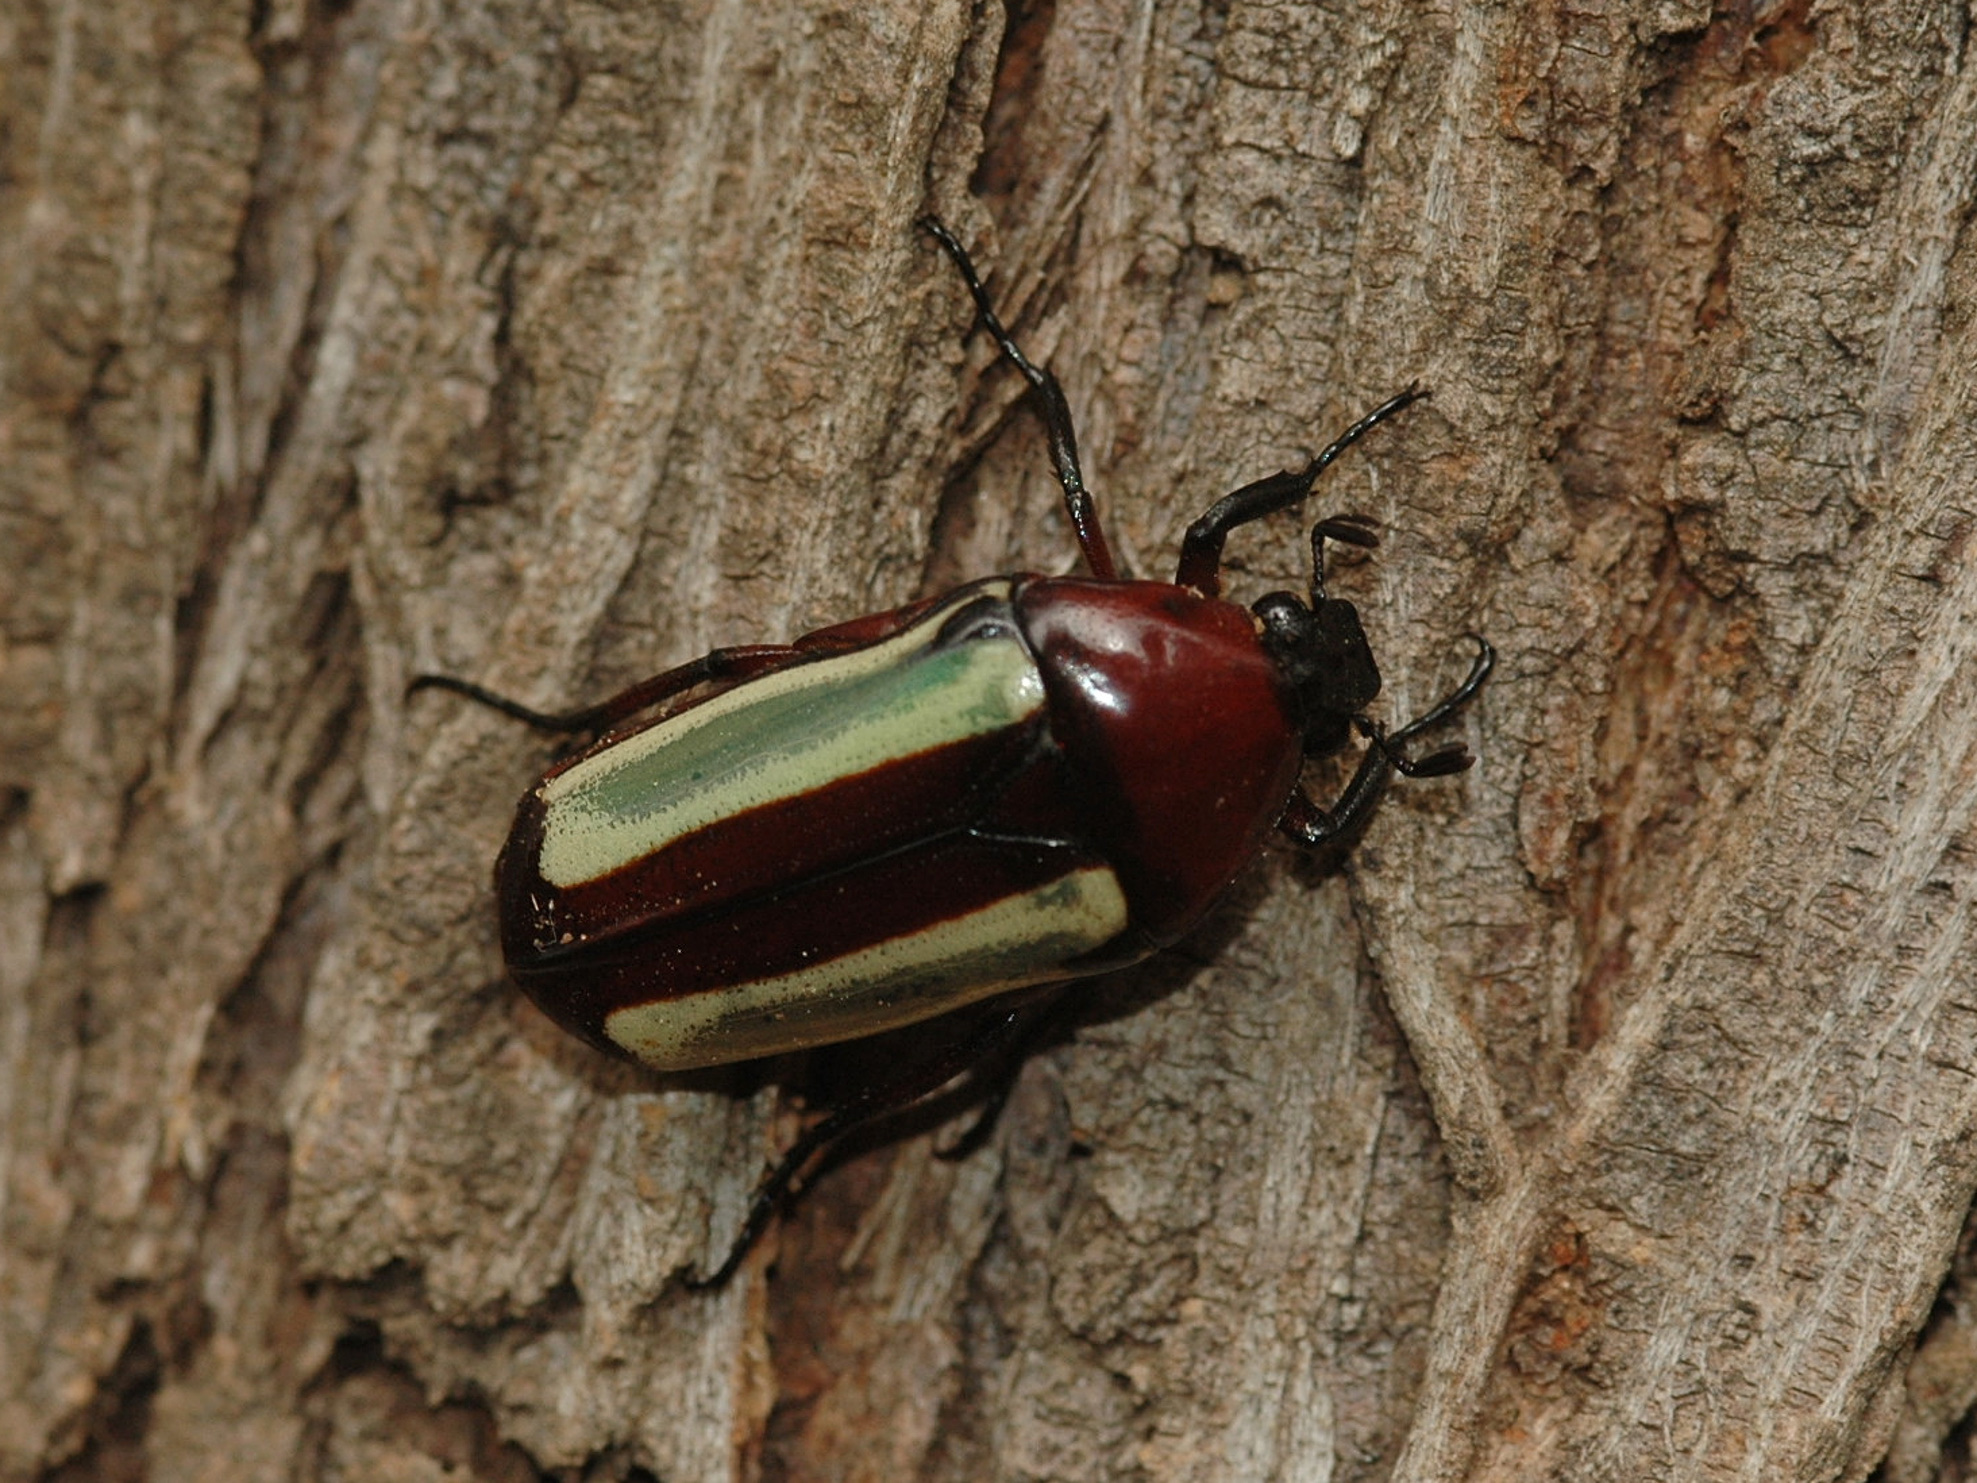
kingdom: Animalia
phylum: Arthropoda
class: Insecta
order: Coleoptera
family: Scarabaeidae
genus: Chlorocala
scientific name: Chlorocala guerini
